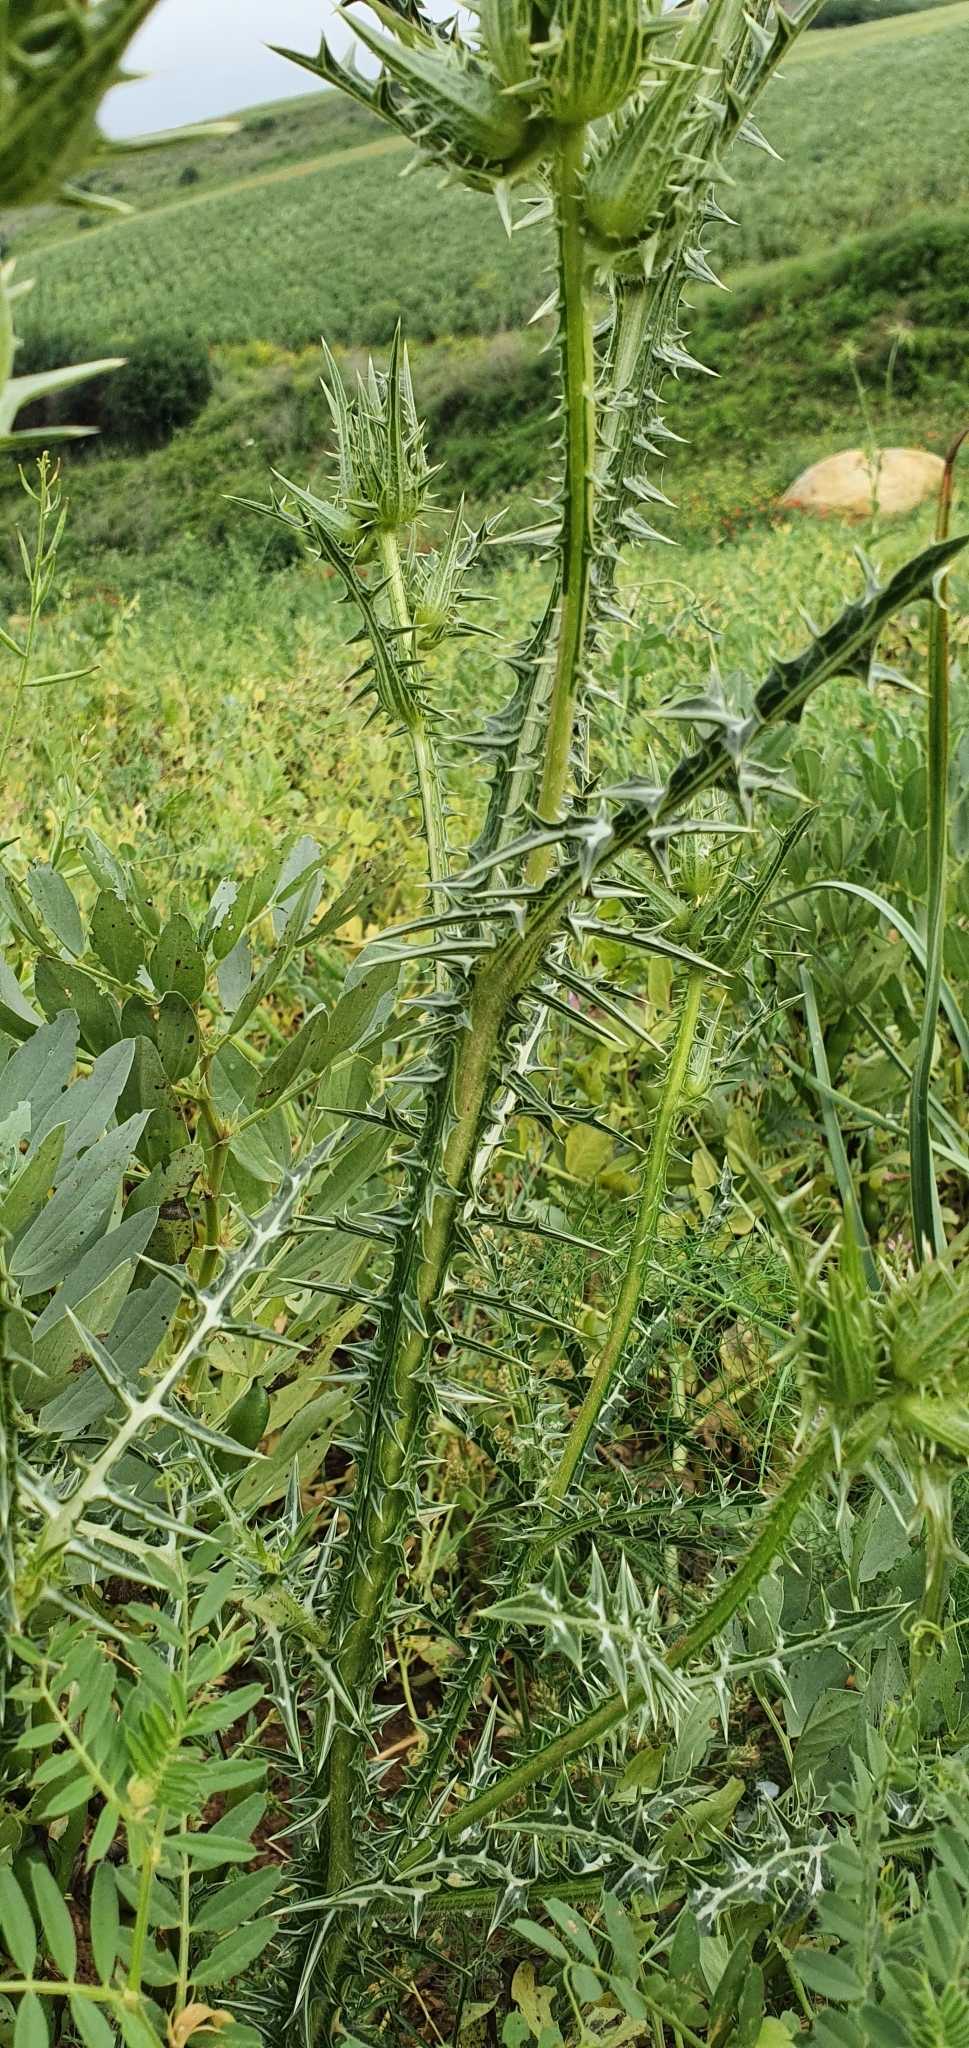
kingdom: Plantae
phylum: Tracheophyta
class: Magnoliopsida
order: Asterales
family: Asteraceae
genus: Scolymus
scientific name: Scolymus grandiflorus
